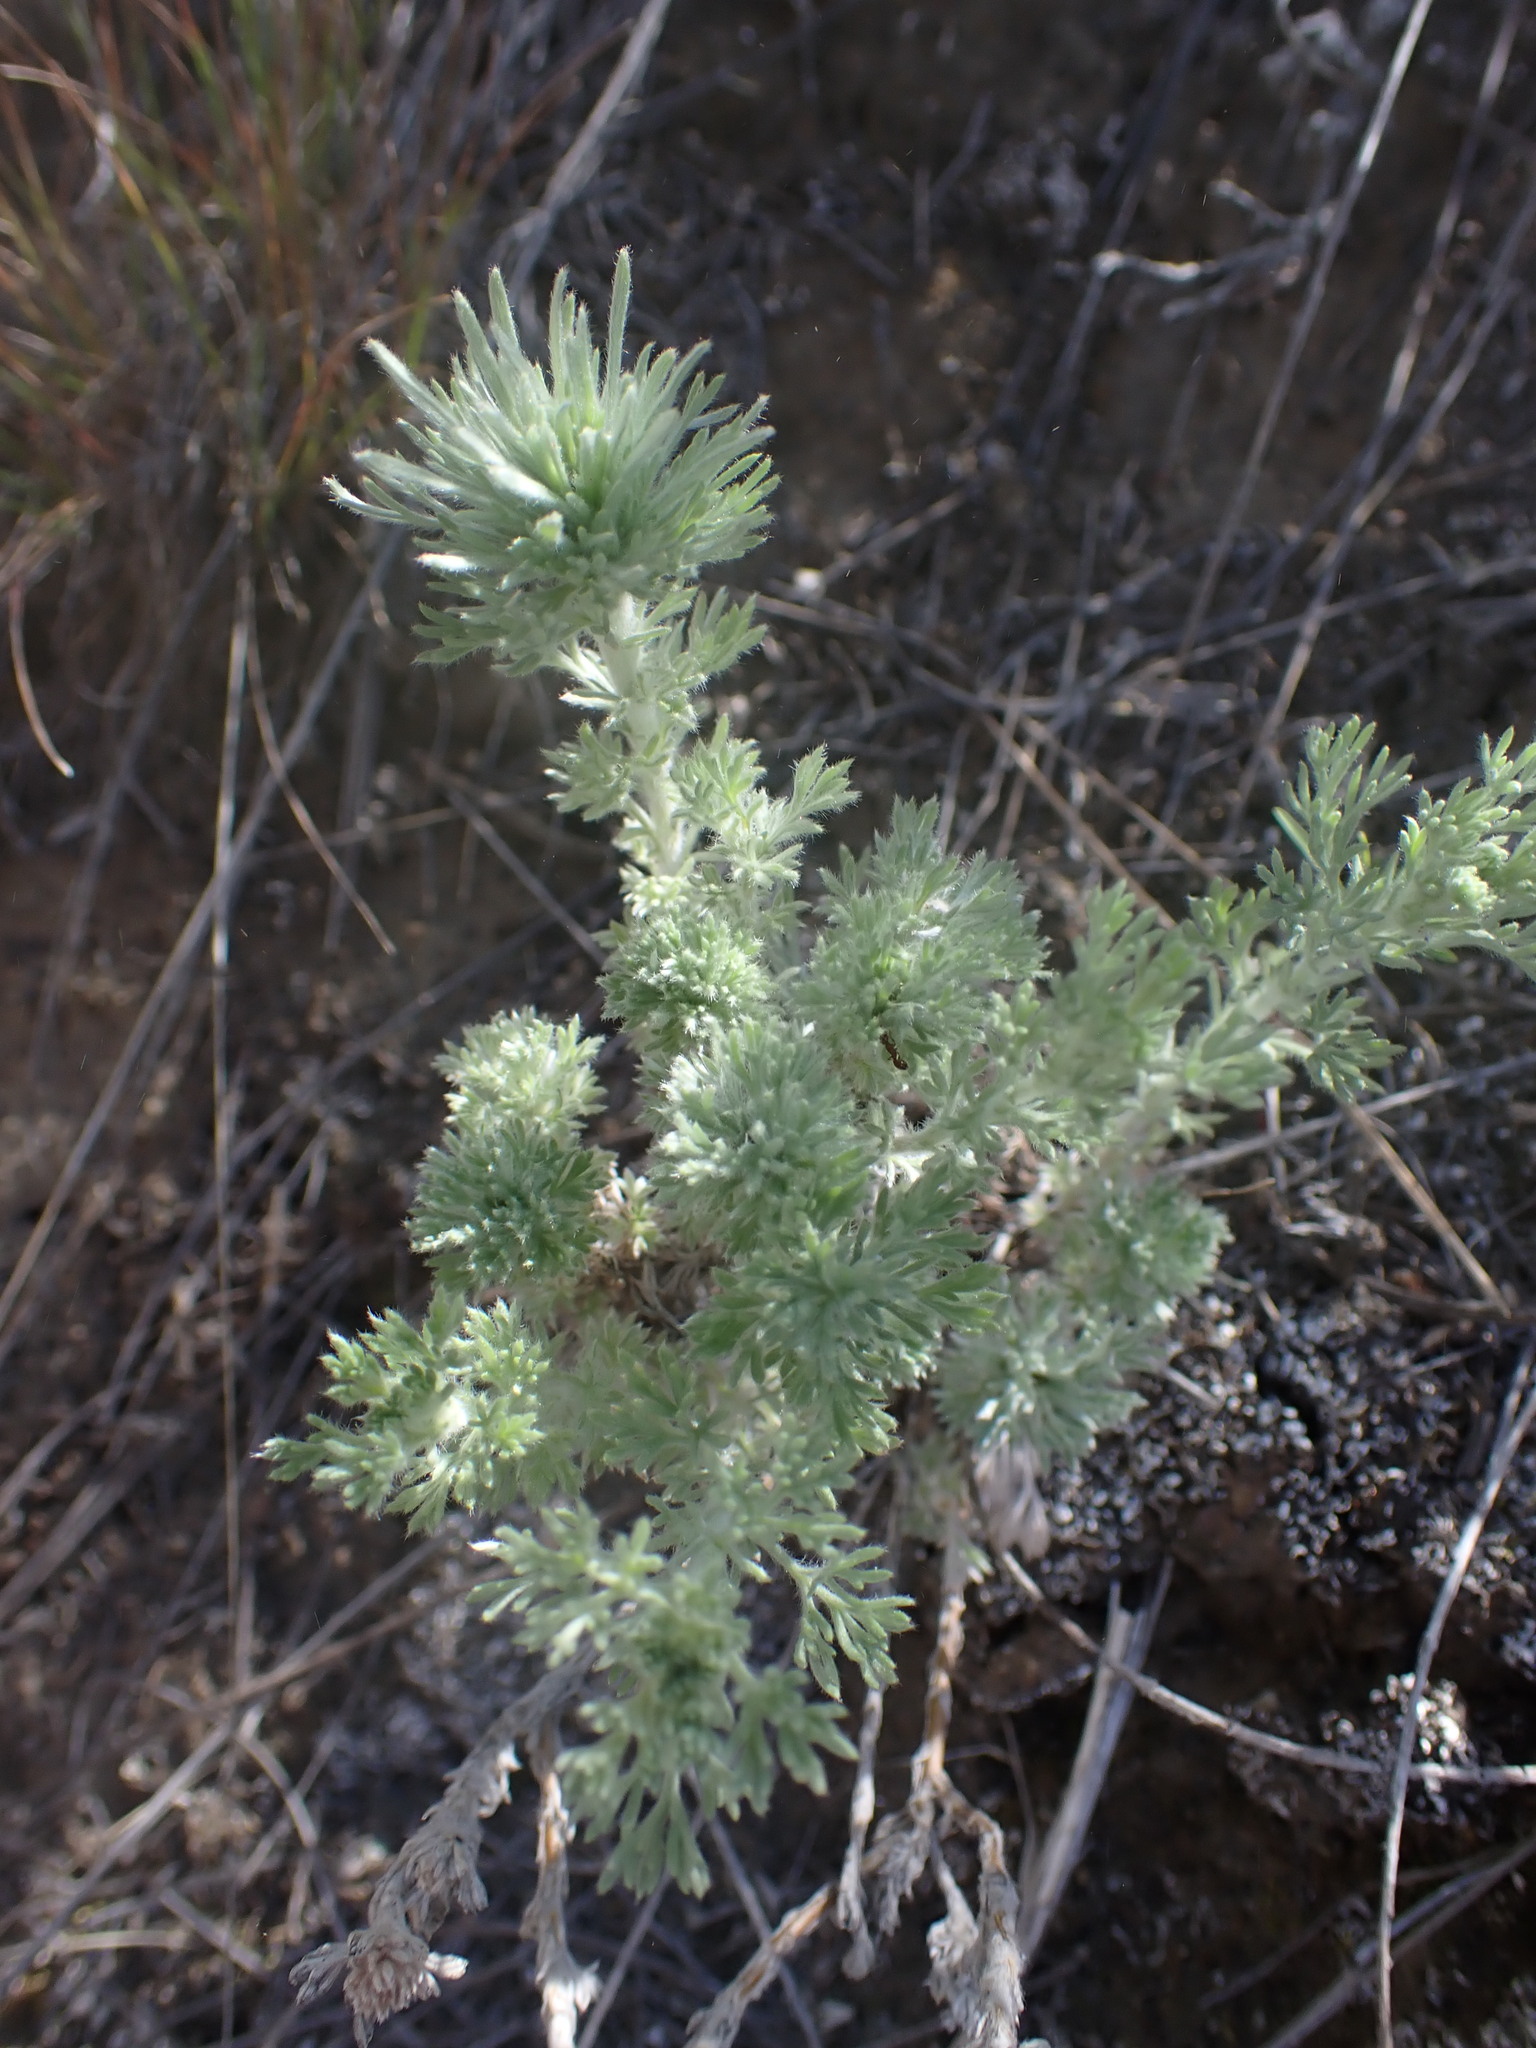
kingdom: Plantae
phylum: Tracheophyta
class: Magnoliopsida
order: Asterales
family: Asteraceae
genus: Artemisia
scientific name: Artemisia frigida
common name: Prairie sagewort
